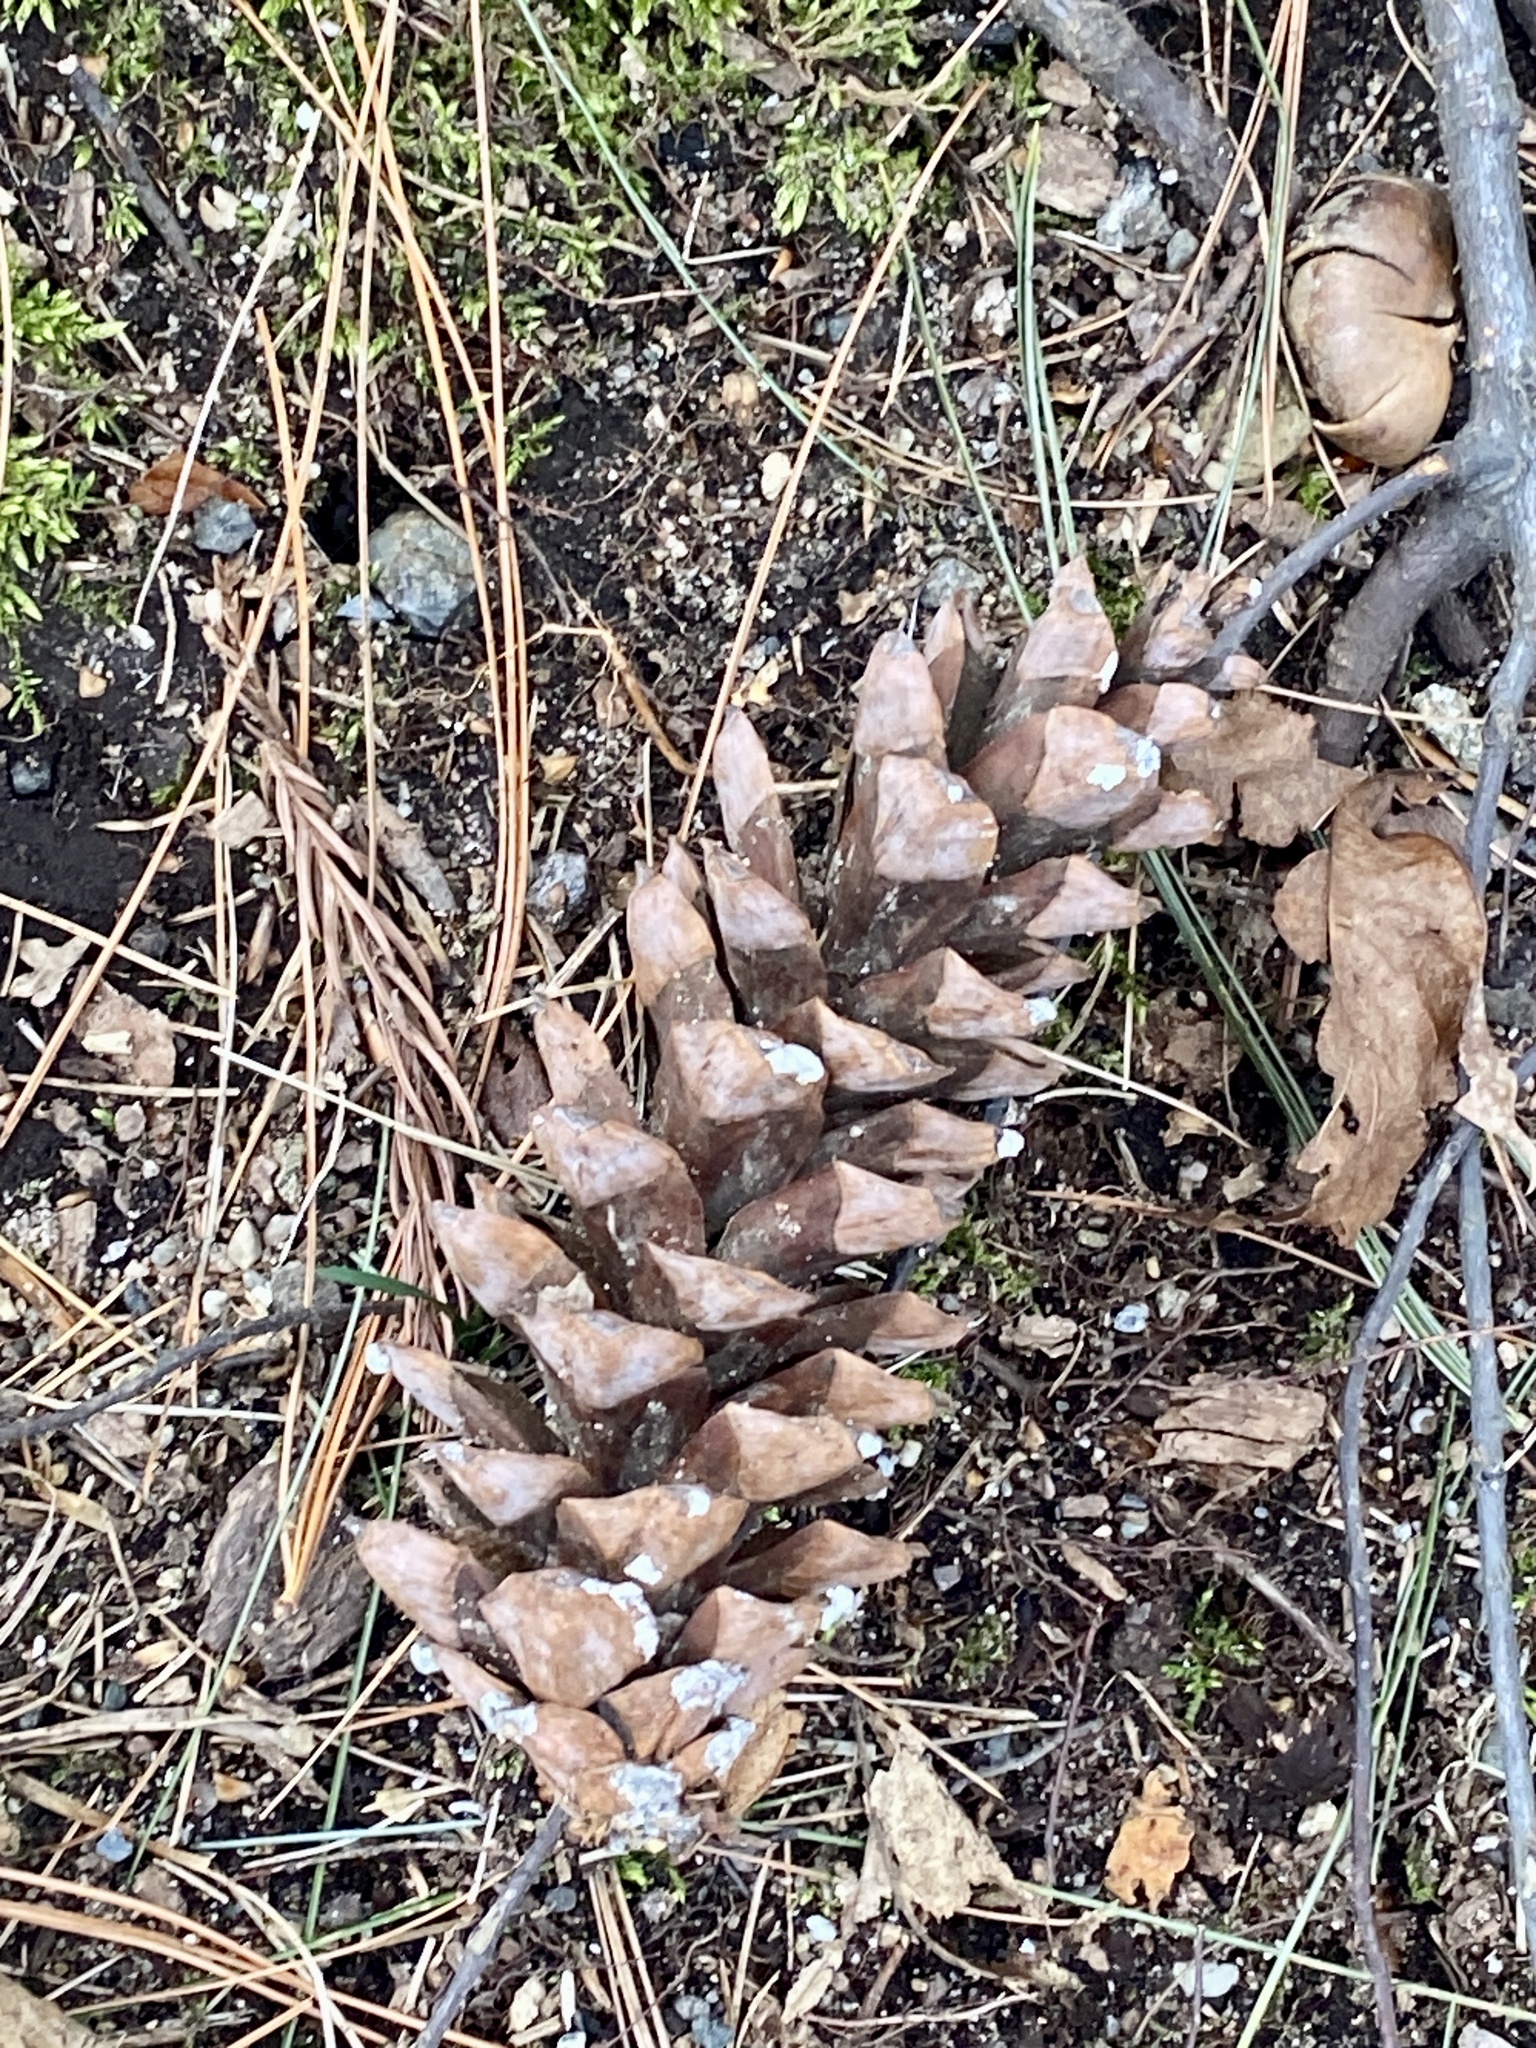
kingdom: Plantae
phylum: Tracheophyta
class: Pinopsida
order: Pinales
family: Pinaceae
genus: Pinus
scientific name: Pinus strobus
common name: Weymouth pine
